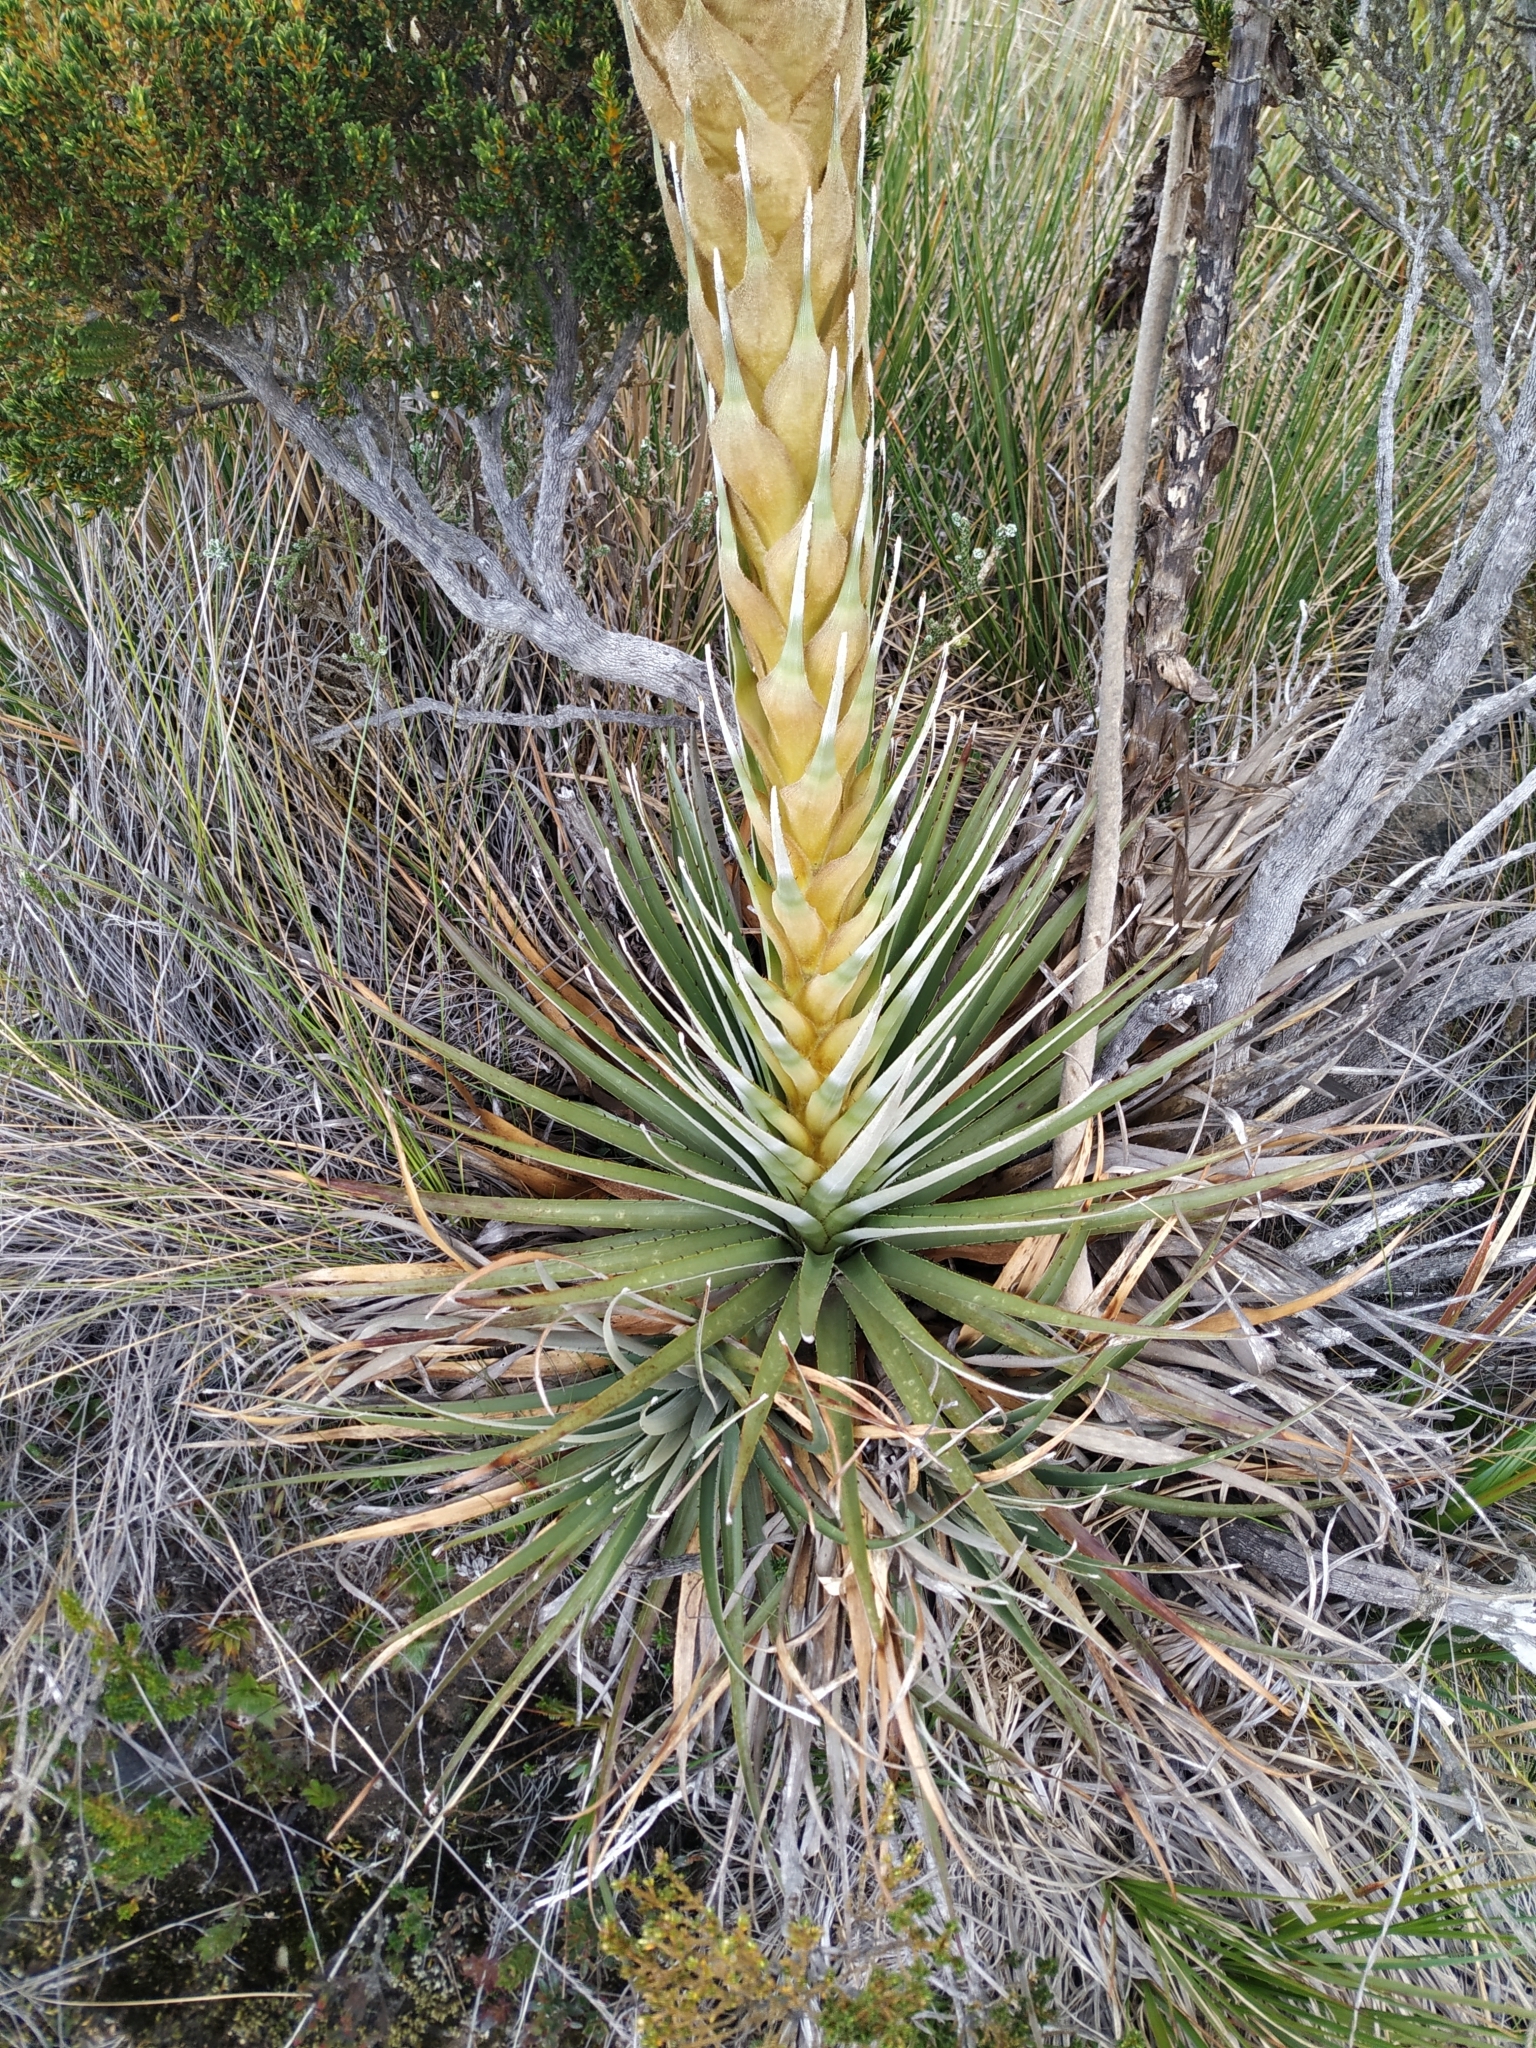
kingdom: Plantae
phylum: Tracheophyta
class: Liliopsida
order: Poales
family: Bromeliaceae
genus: Puya
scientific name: Puya boyacana
